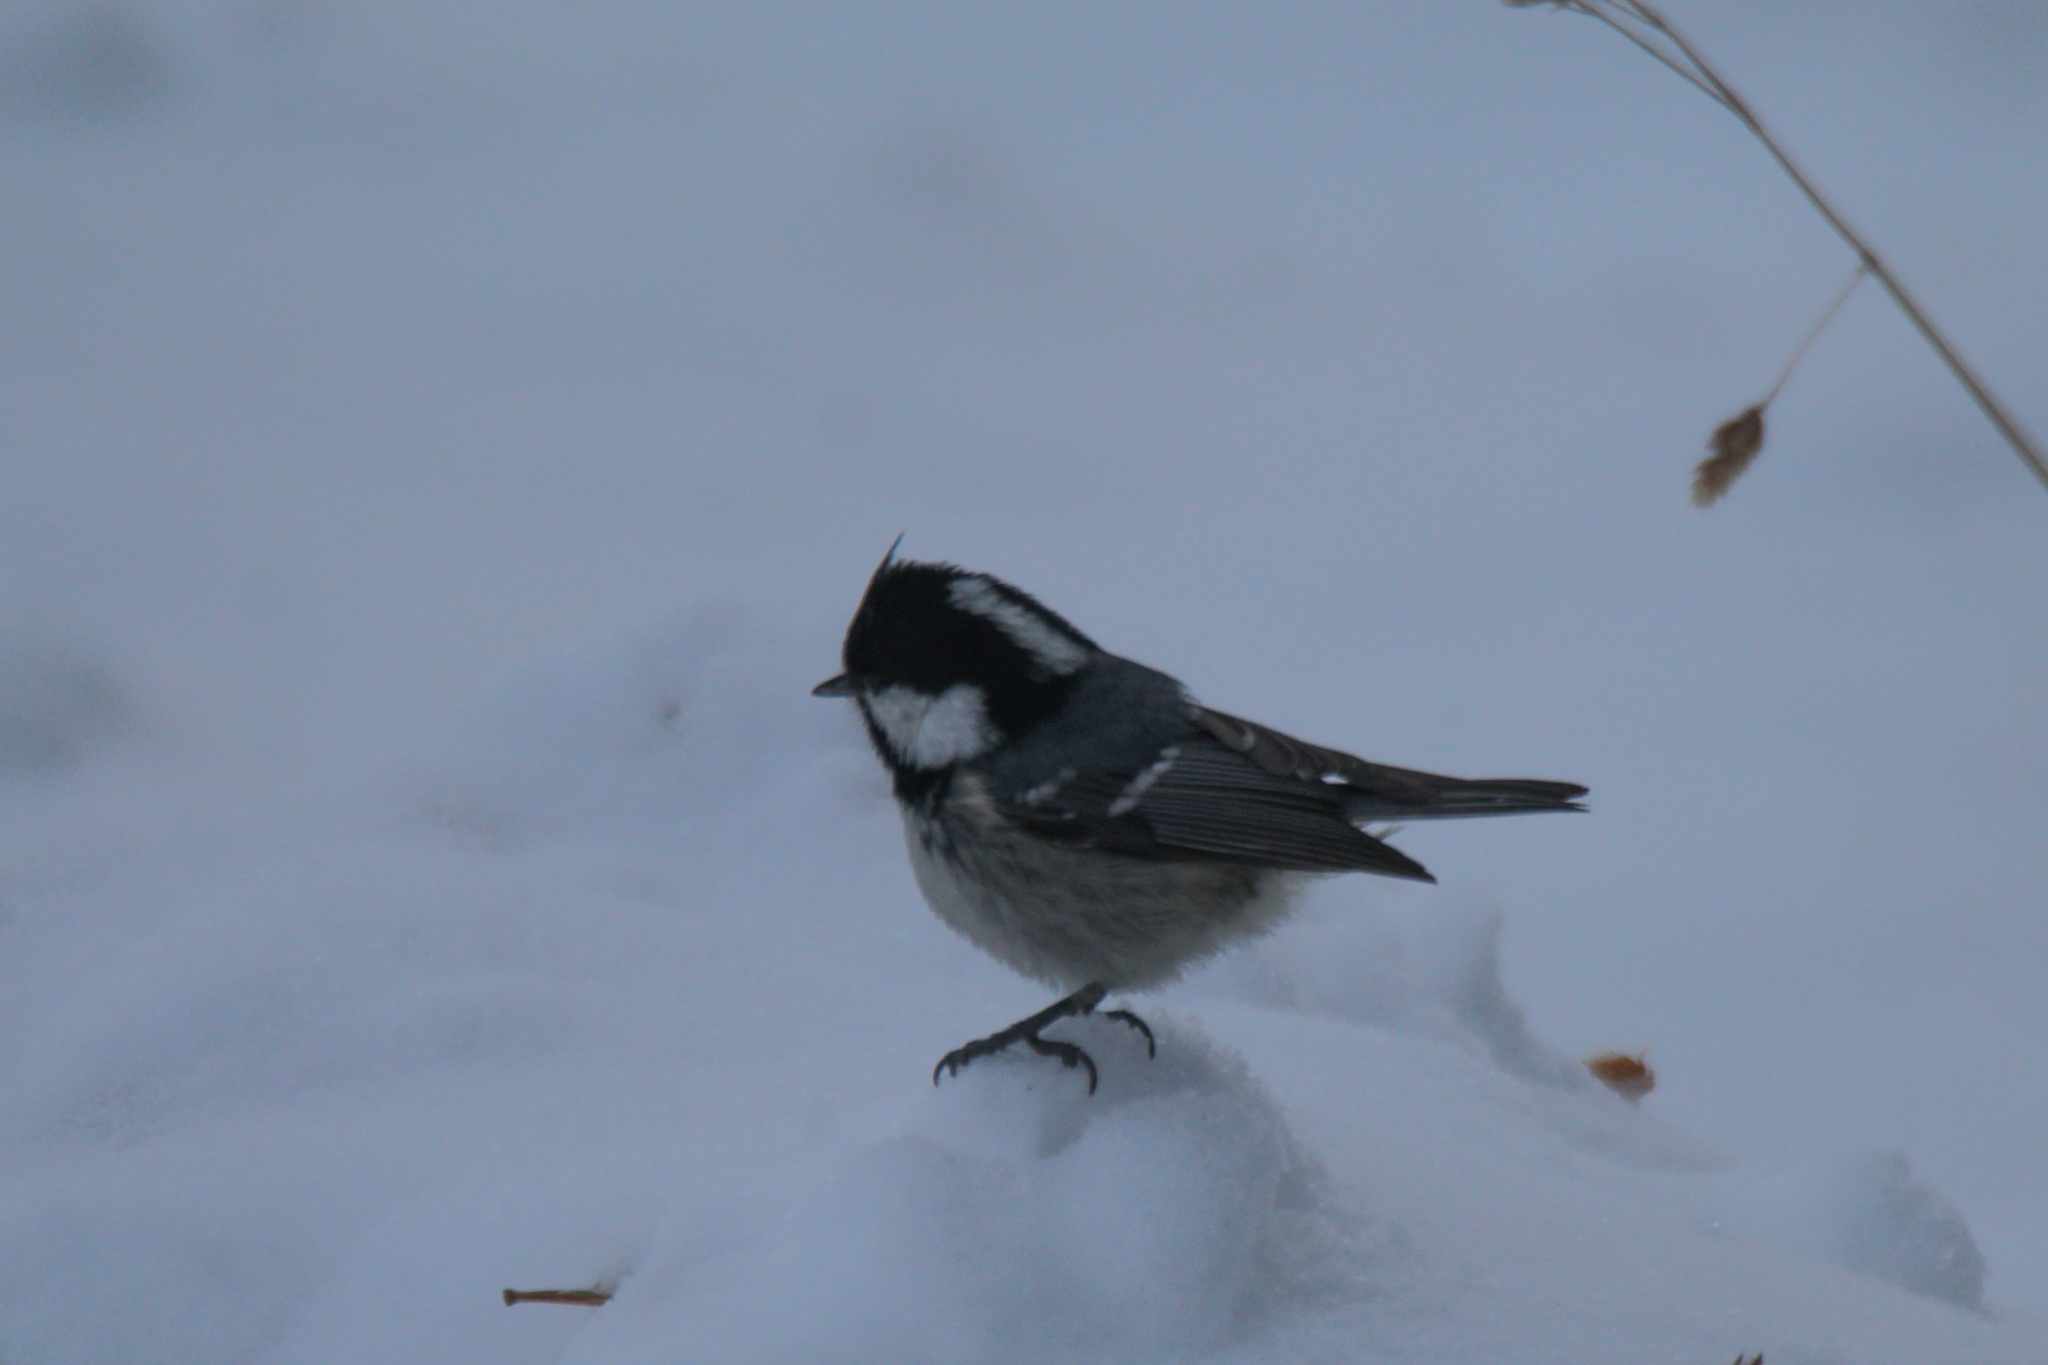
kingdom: Animalia
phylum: Chordata
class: Aves
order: Passeriformes
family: Paridae
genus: Periparus
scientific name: Periparus ater
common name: Coal tit
